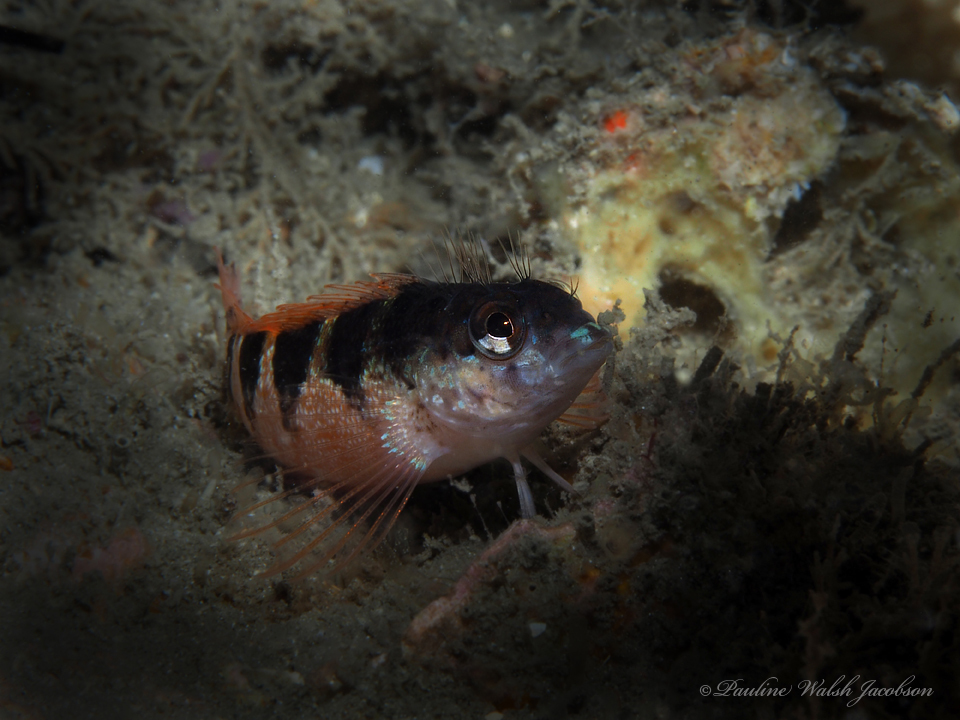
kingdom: Animalia
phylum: Chordata
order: Perciformes
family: Labrisomidae
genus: Malacoctenus
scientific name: Malacoctenus triangulatus
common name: Saddled blenny
